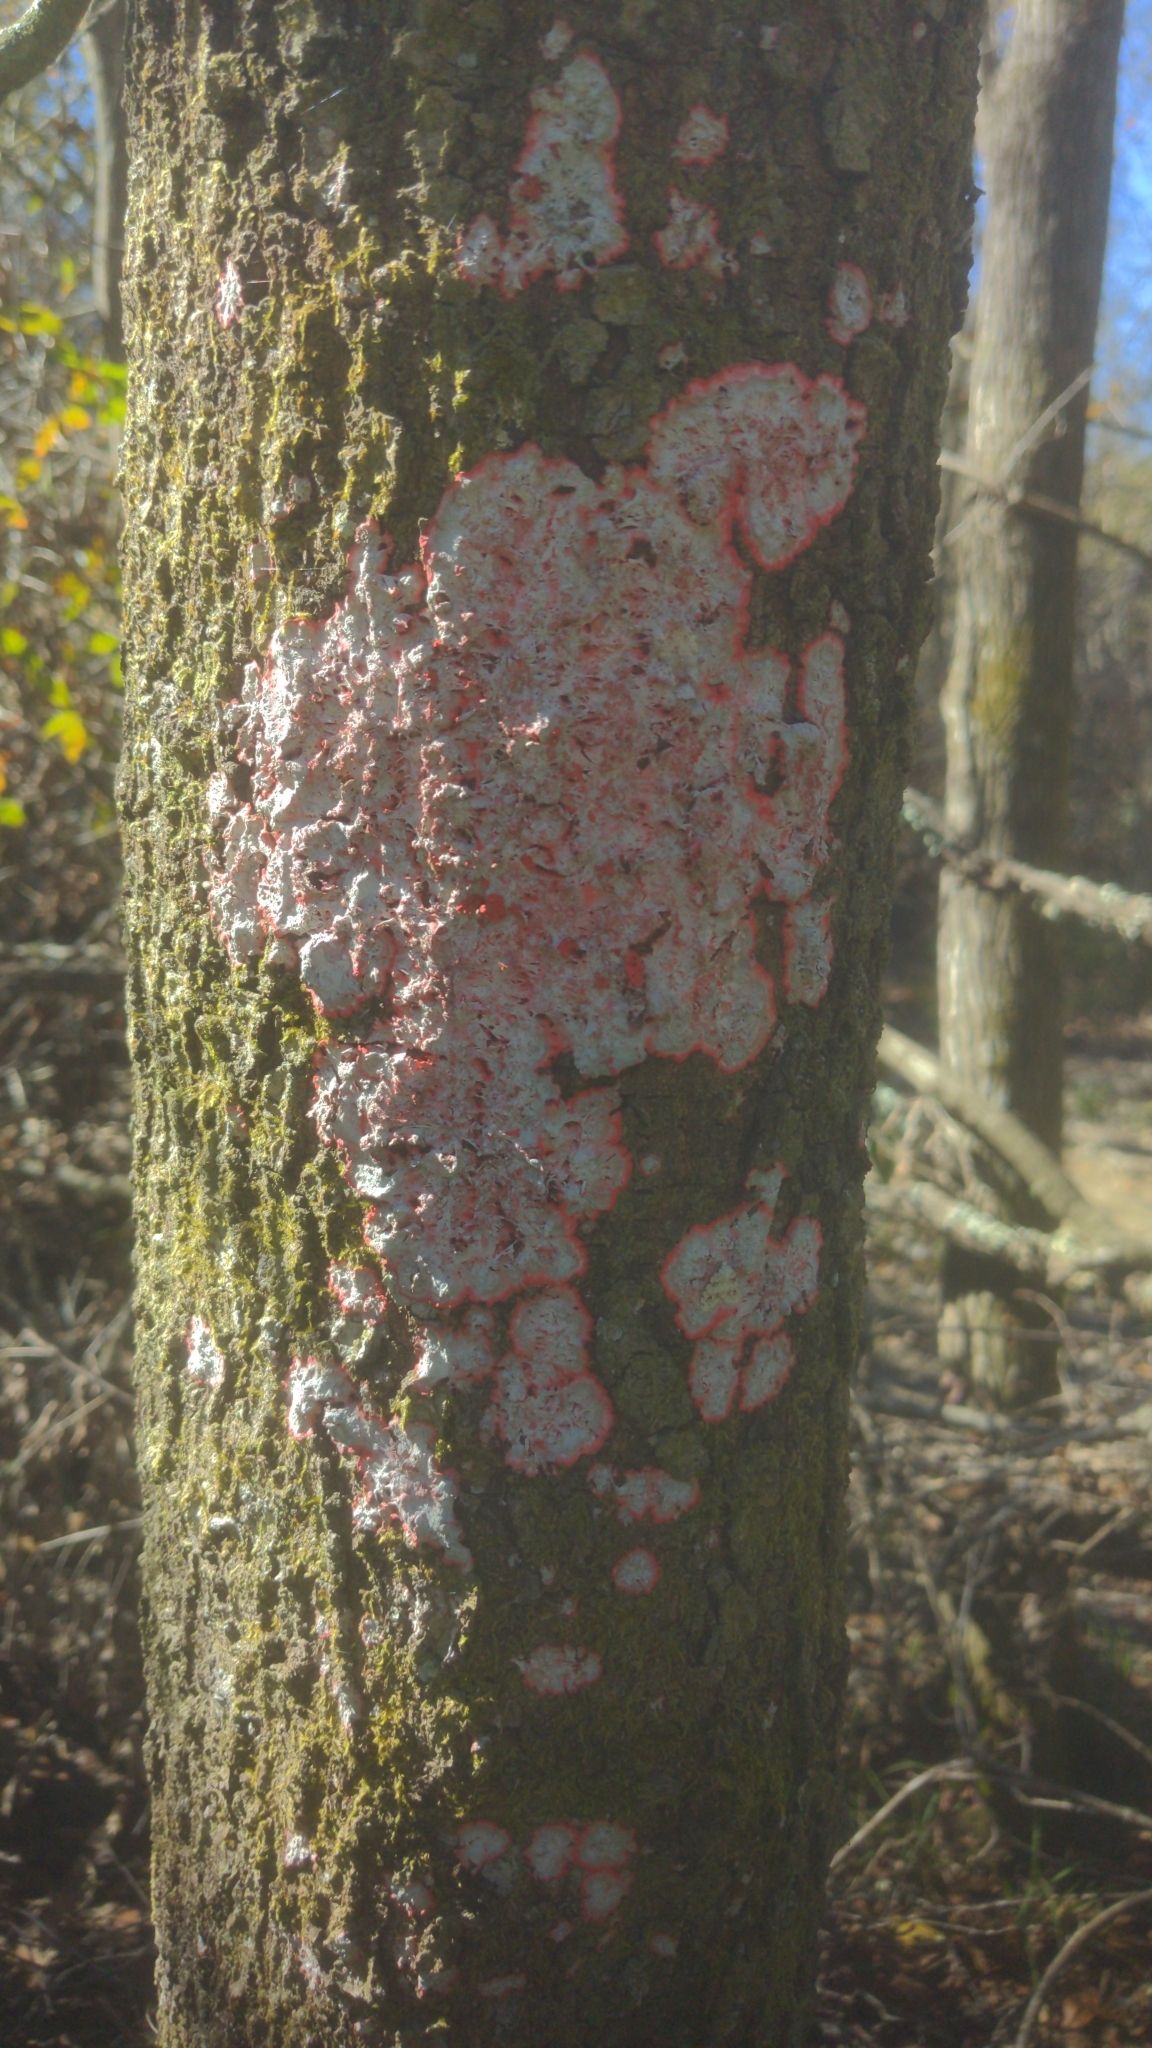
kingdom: Fungi
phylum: Ascomycota
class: Arthoniomycetes
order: Arthoniales
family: Arthoniaceae
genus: Herpothallon
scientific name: Herpothallon rubrocinctum
